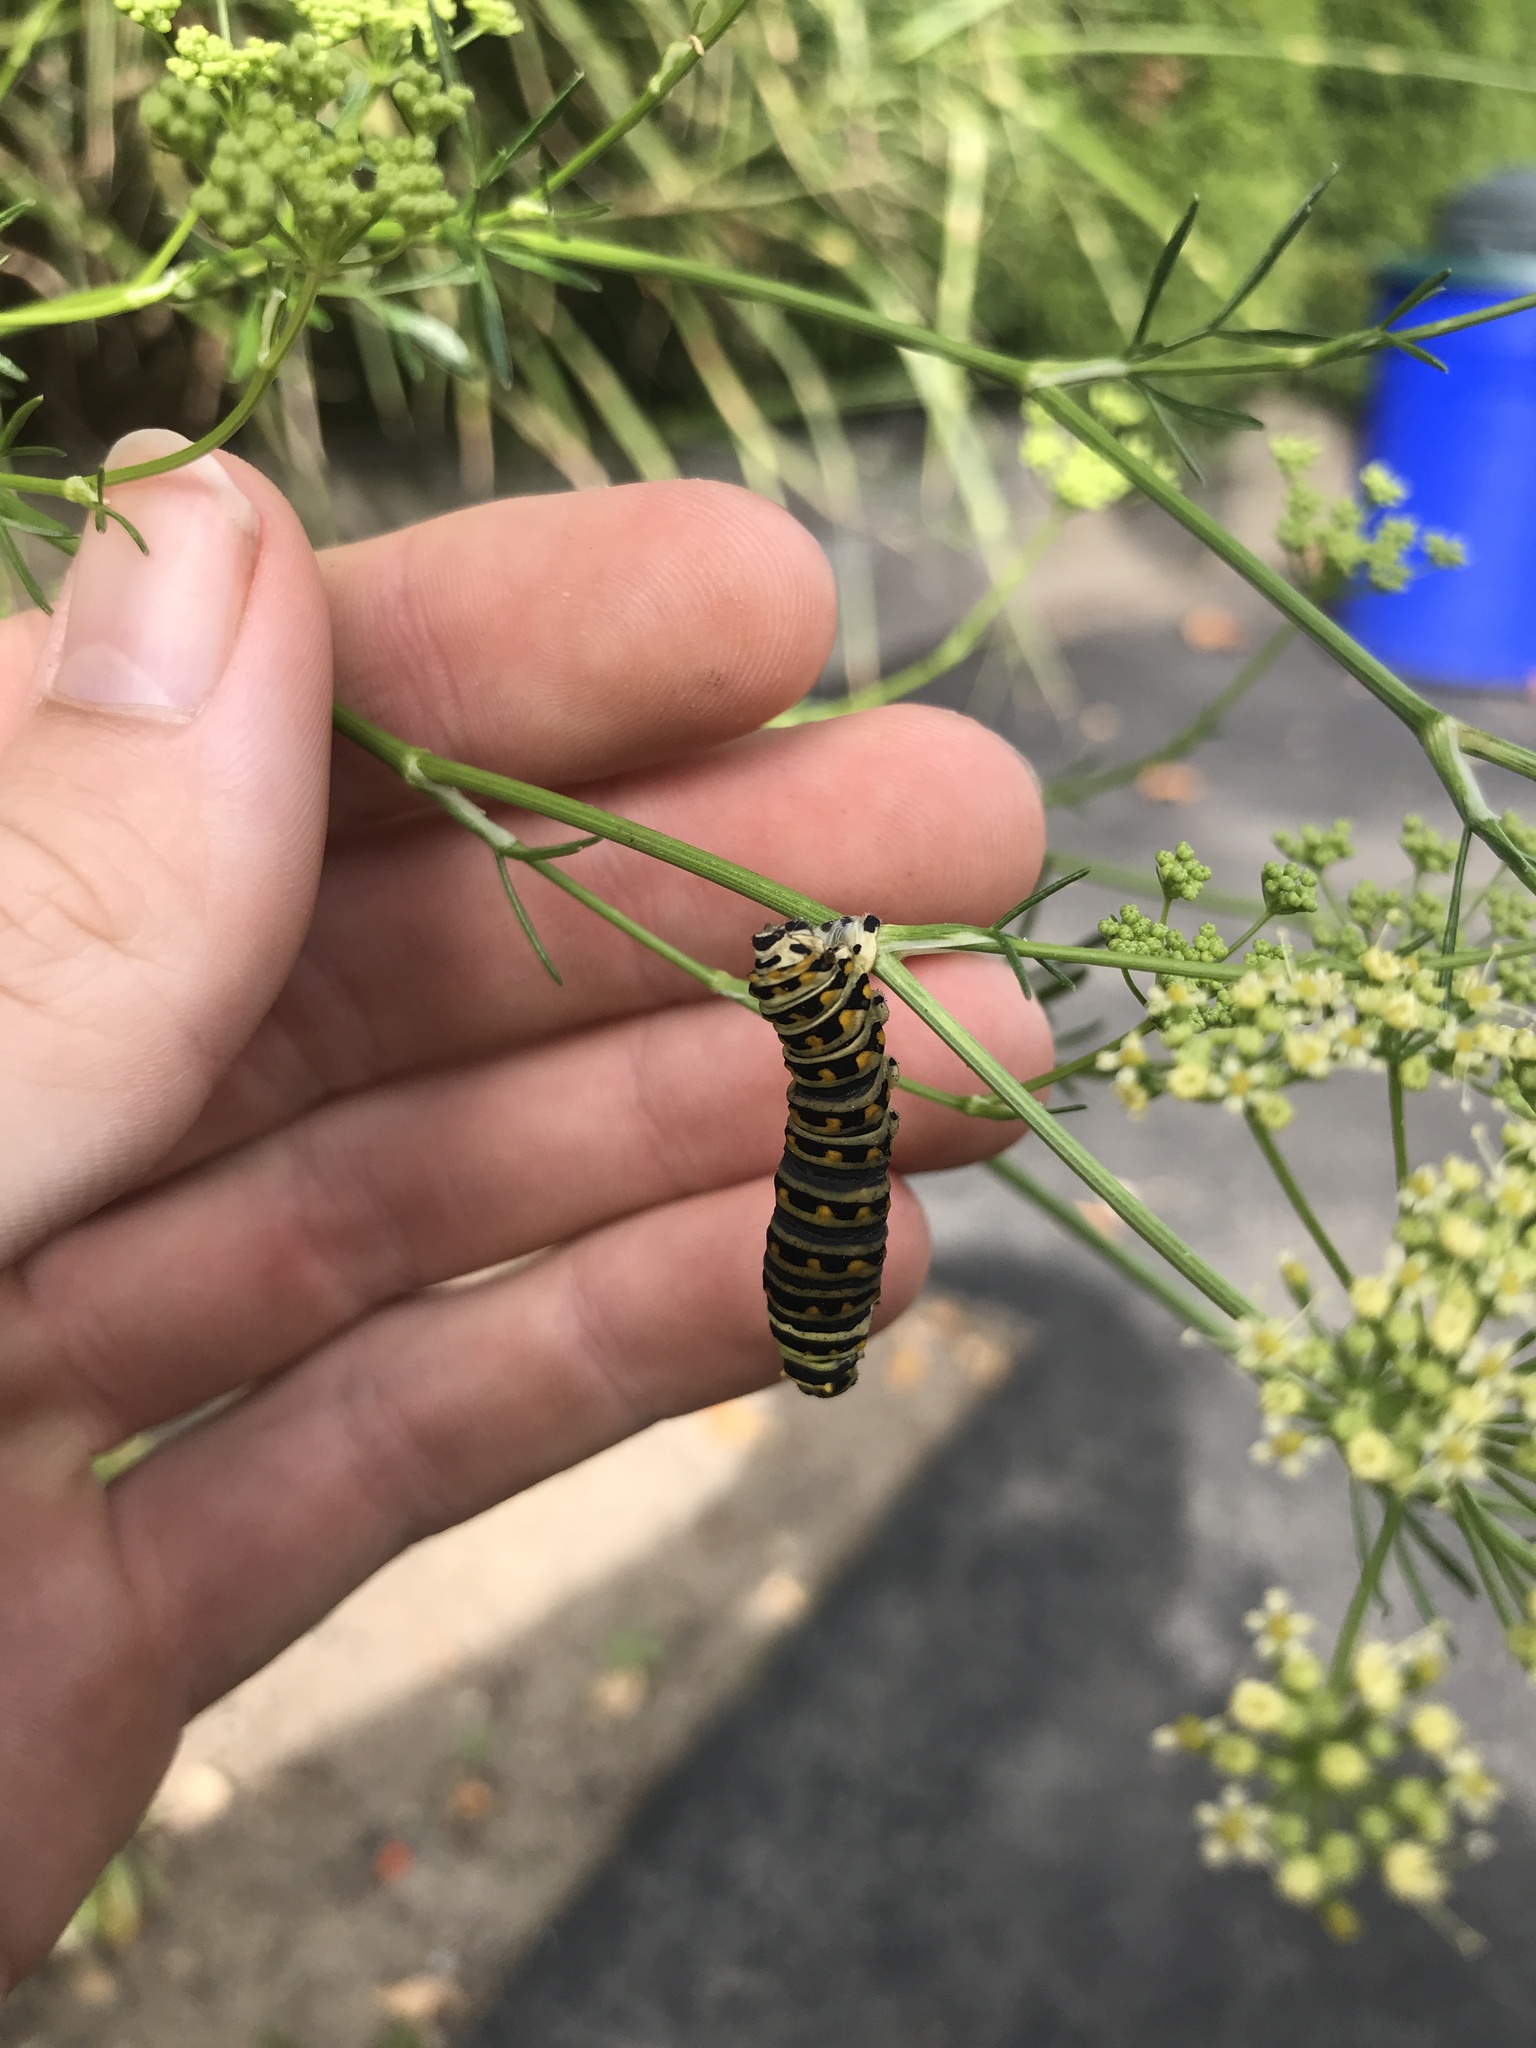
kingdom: Animalia
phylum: Arthropoda
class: Insecta
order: Lepidoptera
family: Papilionidae
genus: Papilio
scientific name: Papilio polyxenes
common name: Black swallowtail
